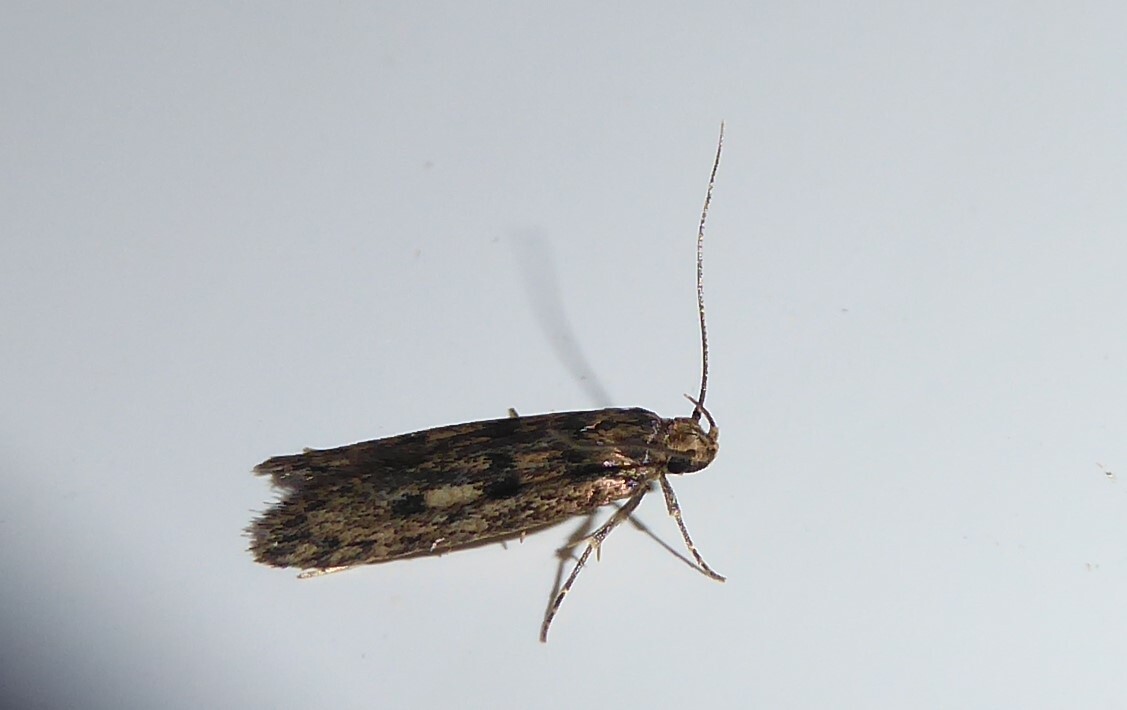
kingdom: Animalia
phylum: Arthropoda
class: Insecta
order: Lepidoptera
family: Oecophoridae
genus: Hofmannophila
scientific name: Hofmannophila pseudospretella
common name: Brown house moth
